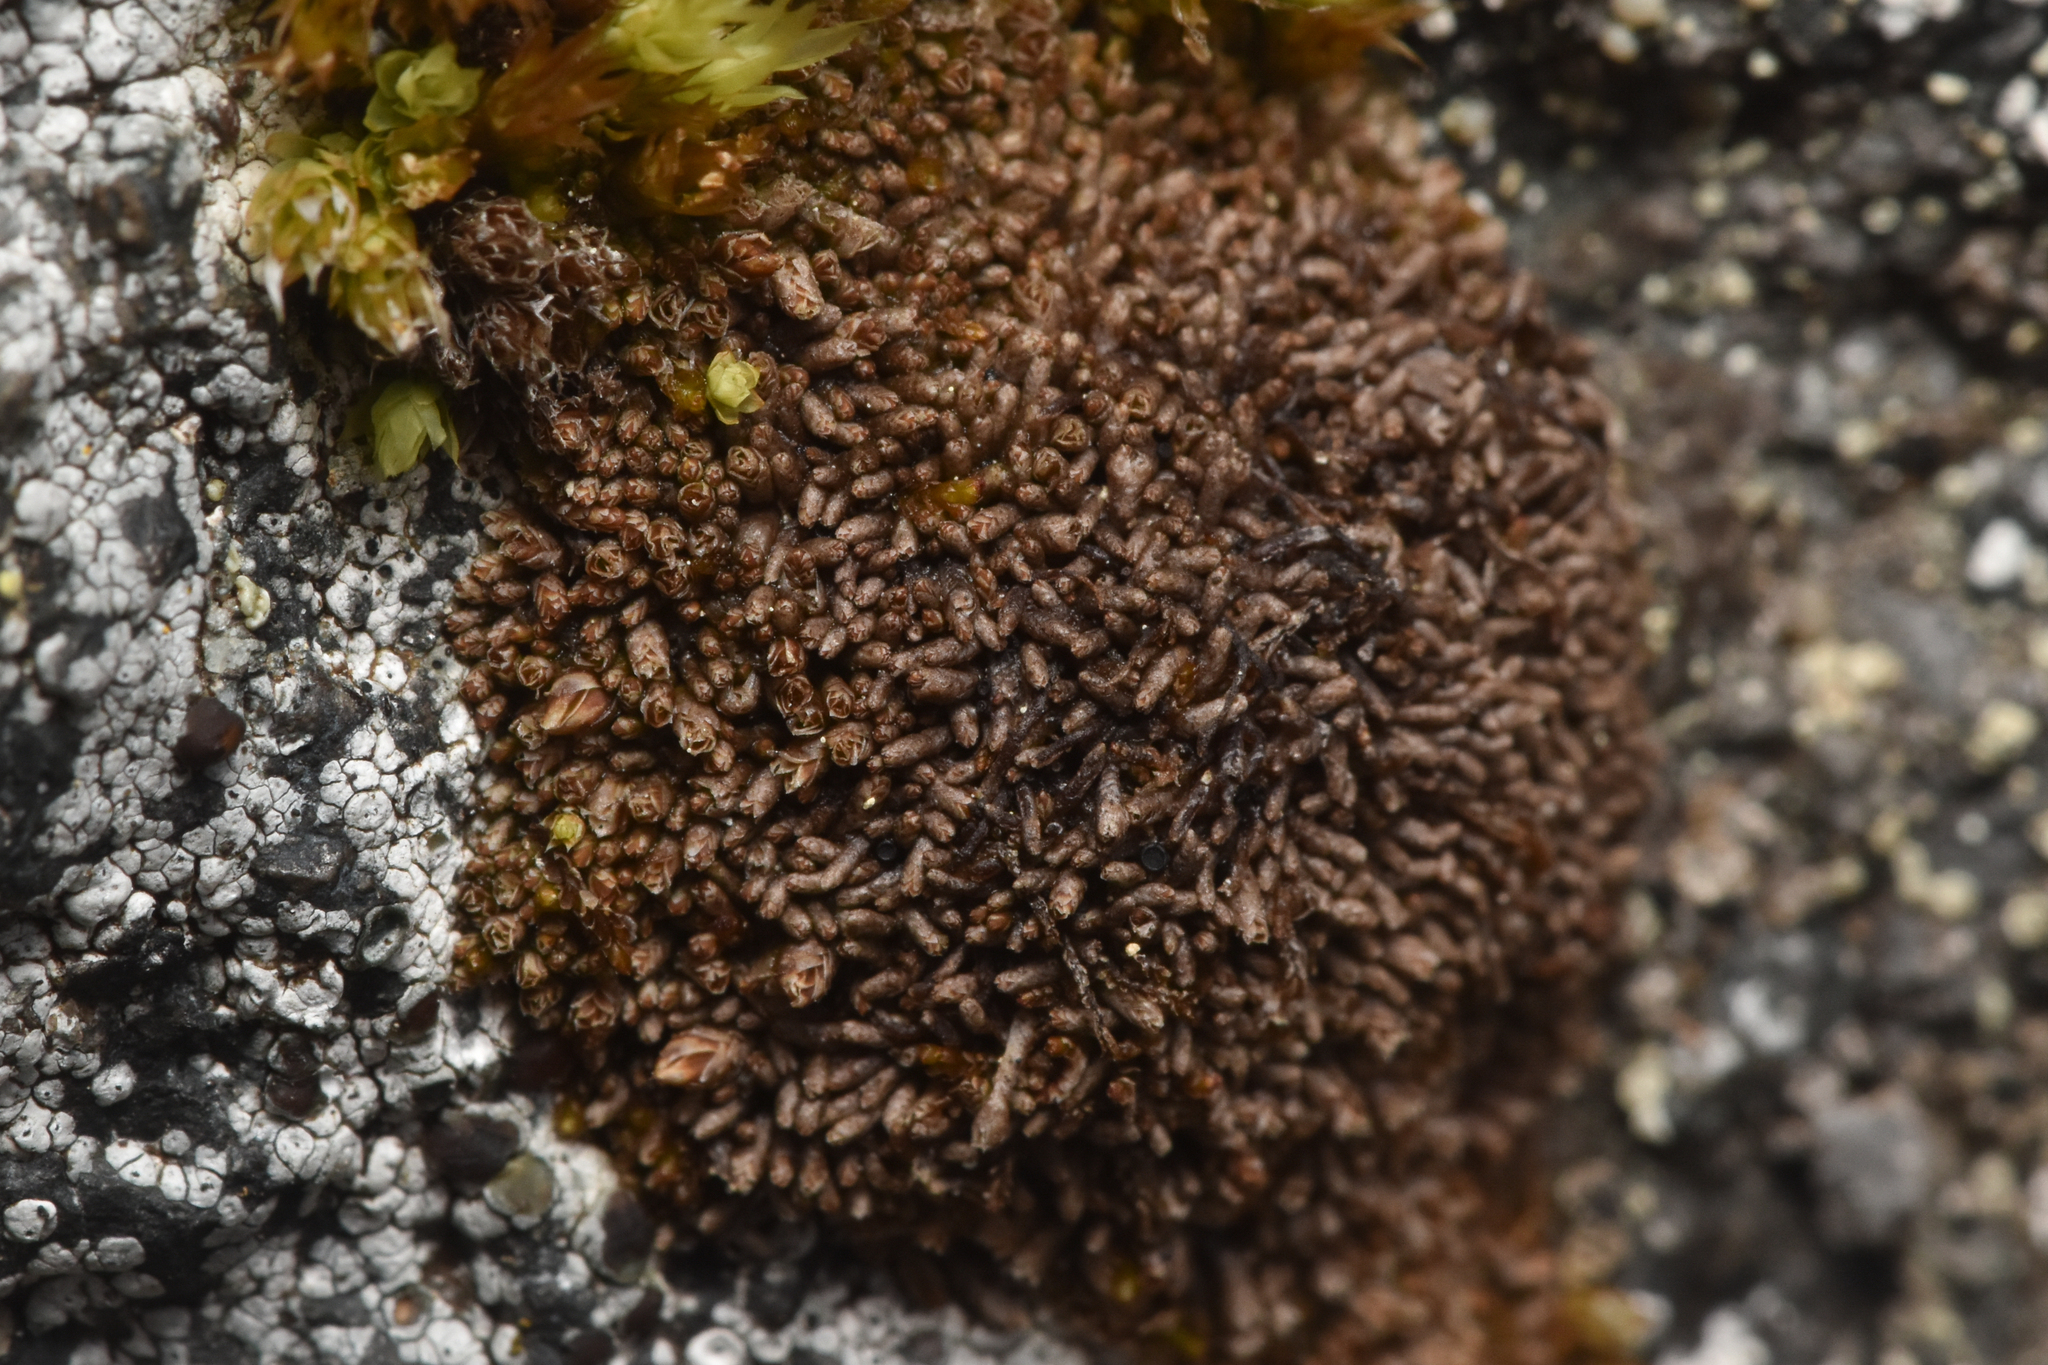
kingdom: Plantae
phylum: Marchantiophyta
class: Jungermanniopsida
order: Jungermanniales
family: Gymnomitriaceae
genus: Gymnomitrion
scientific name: Gymnomitrion obtusum
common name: White frostwort
